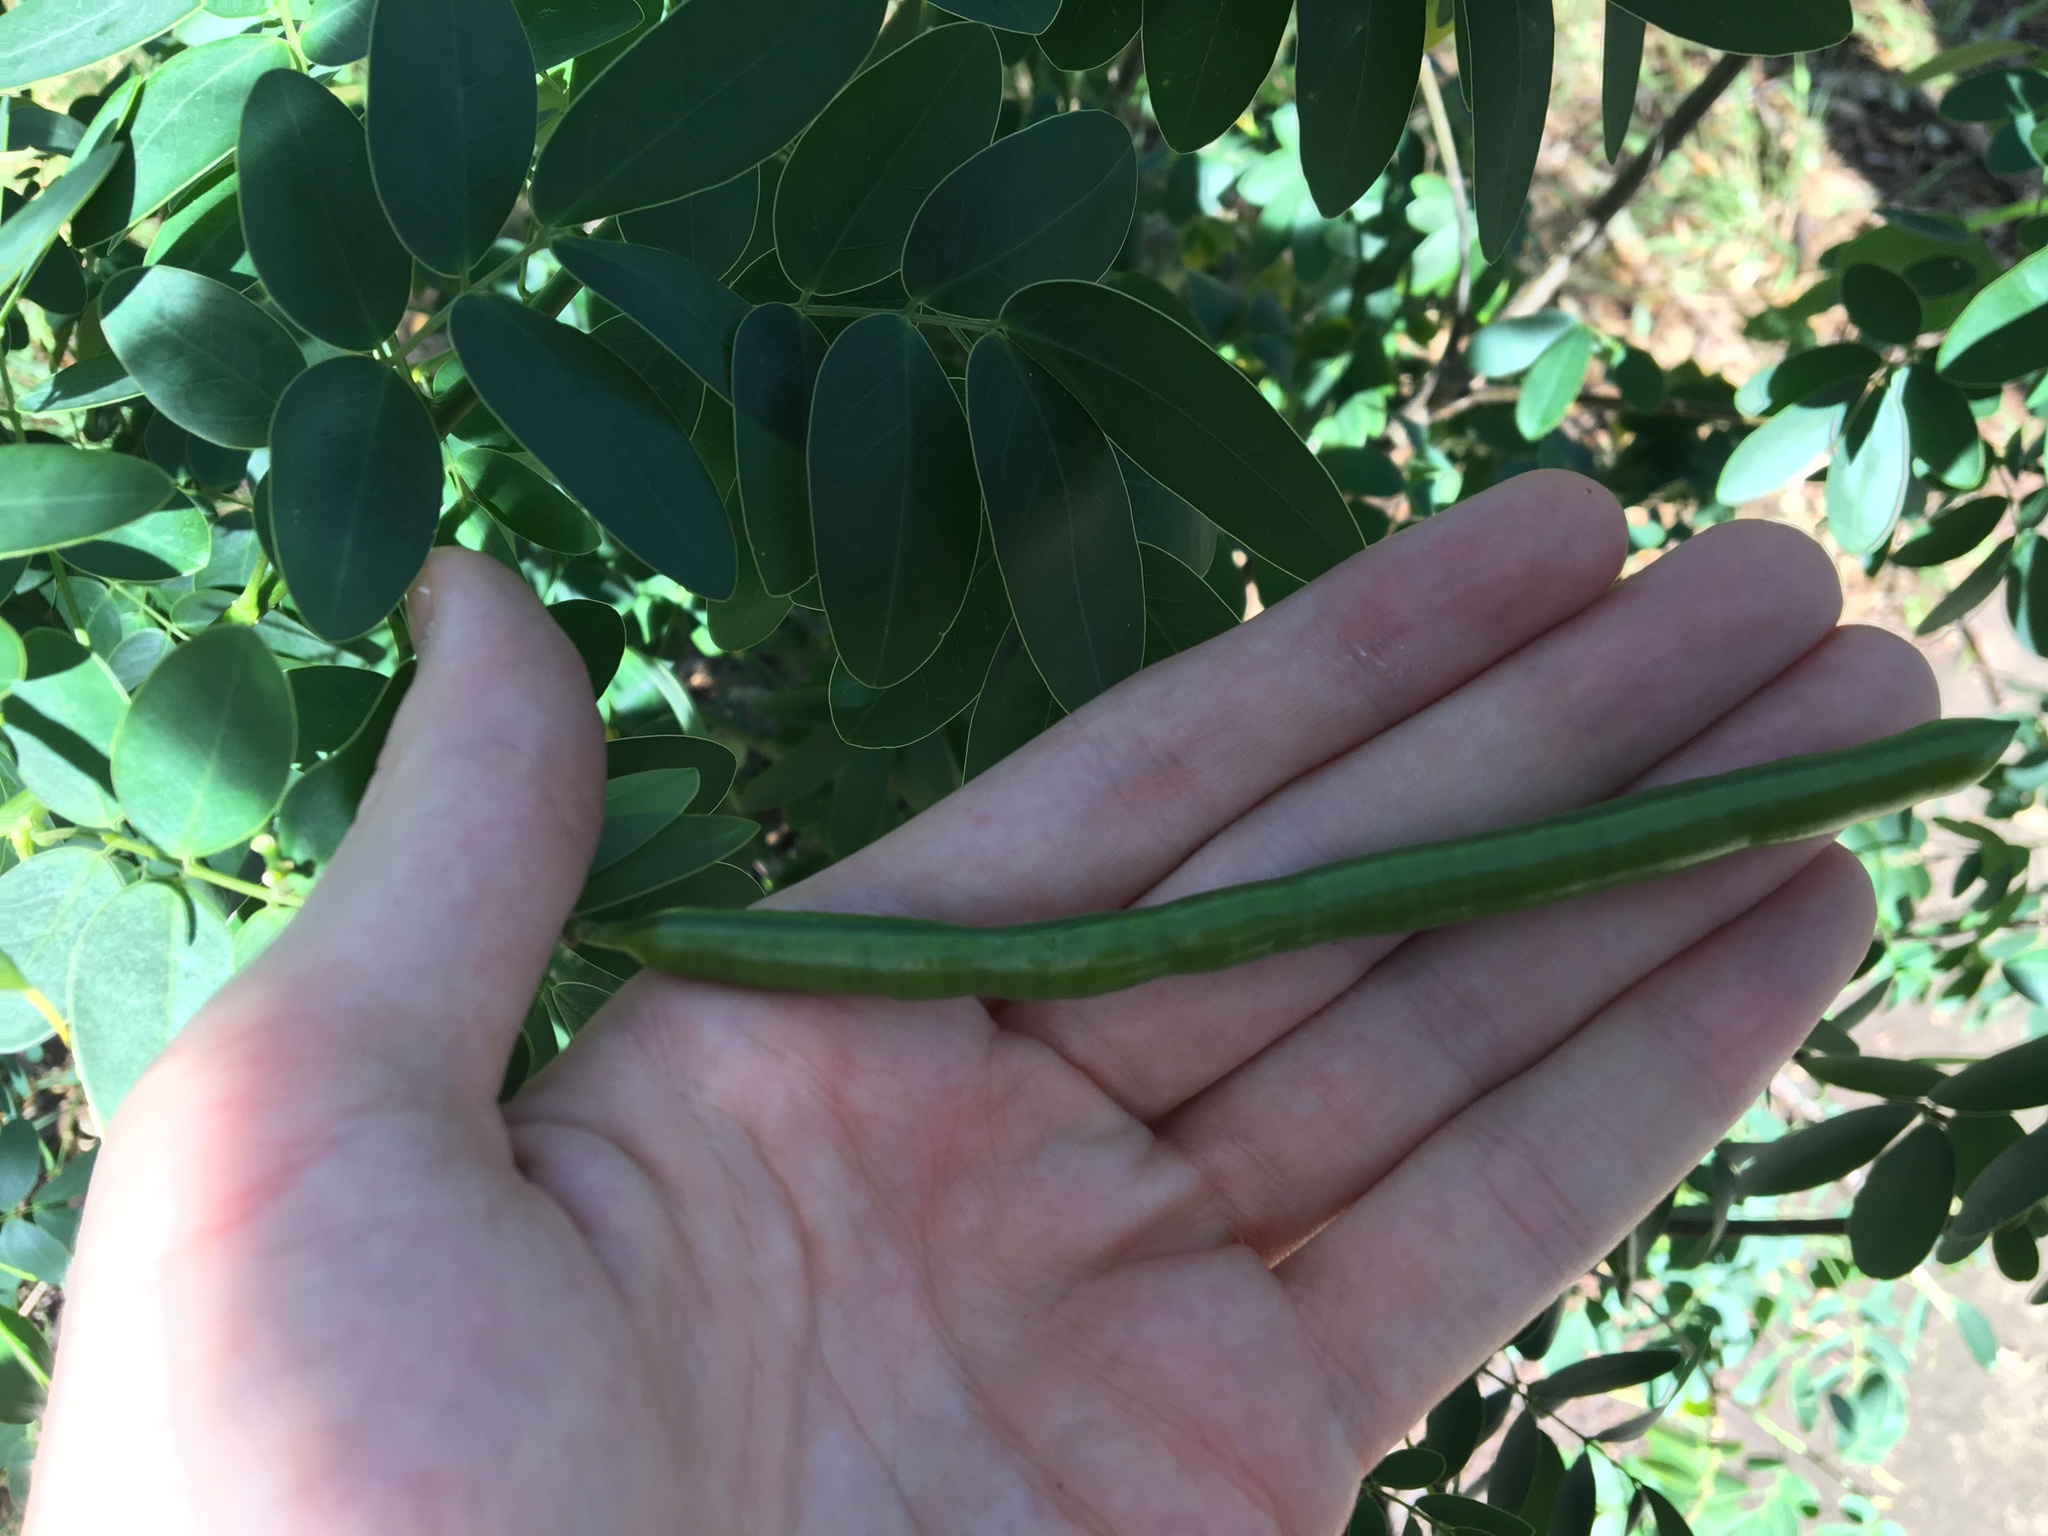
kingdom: Plantae
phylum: Tracheophyta
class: Magnoliopsida
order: Fabales
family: Fabaceae
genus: Senna
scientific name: Senna pendula
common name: Easter cassia
